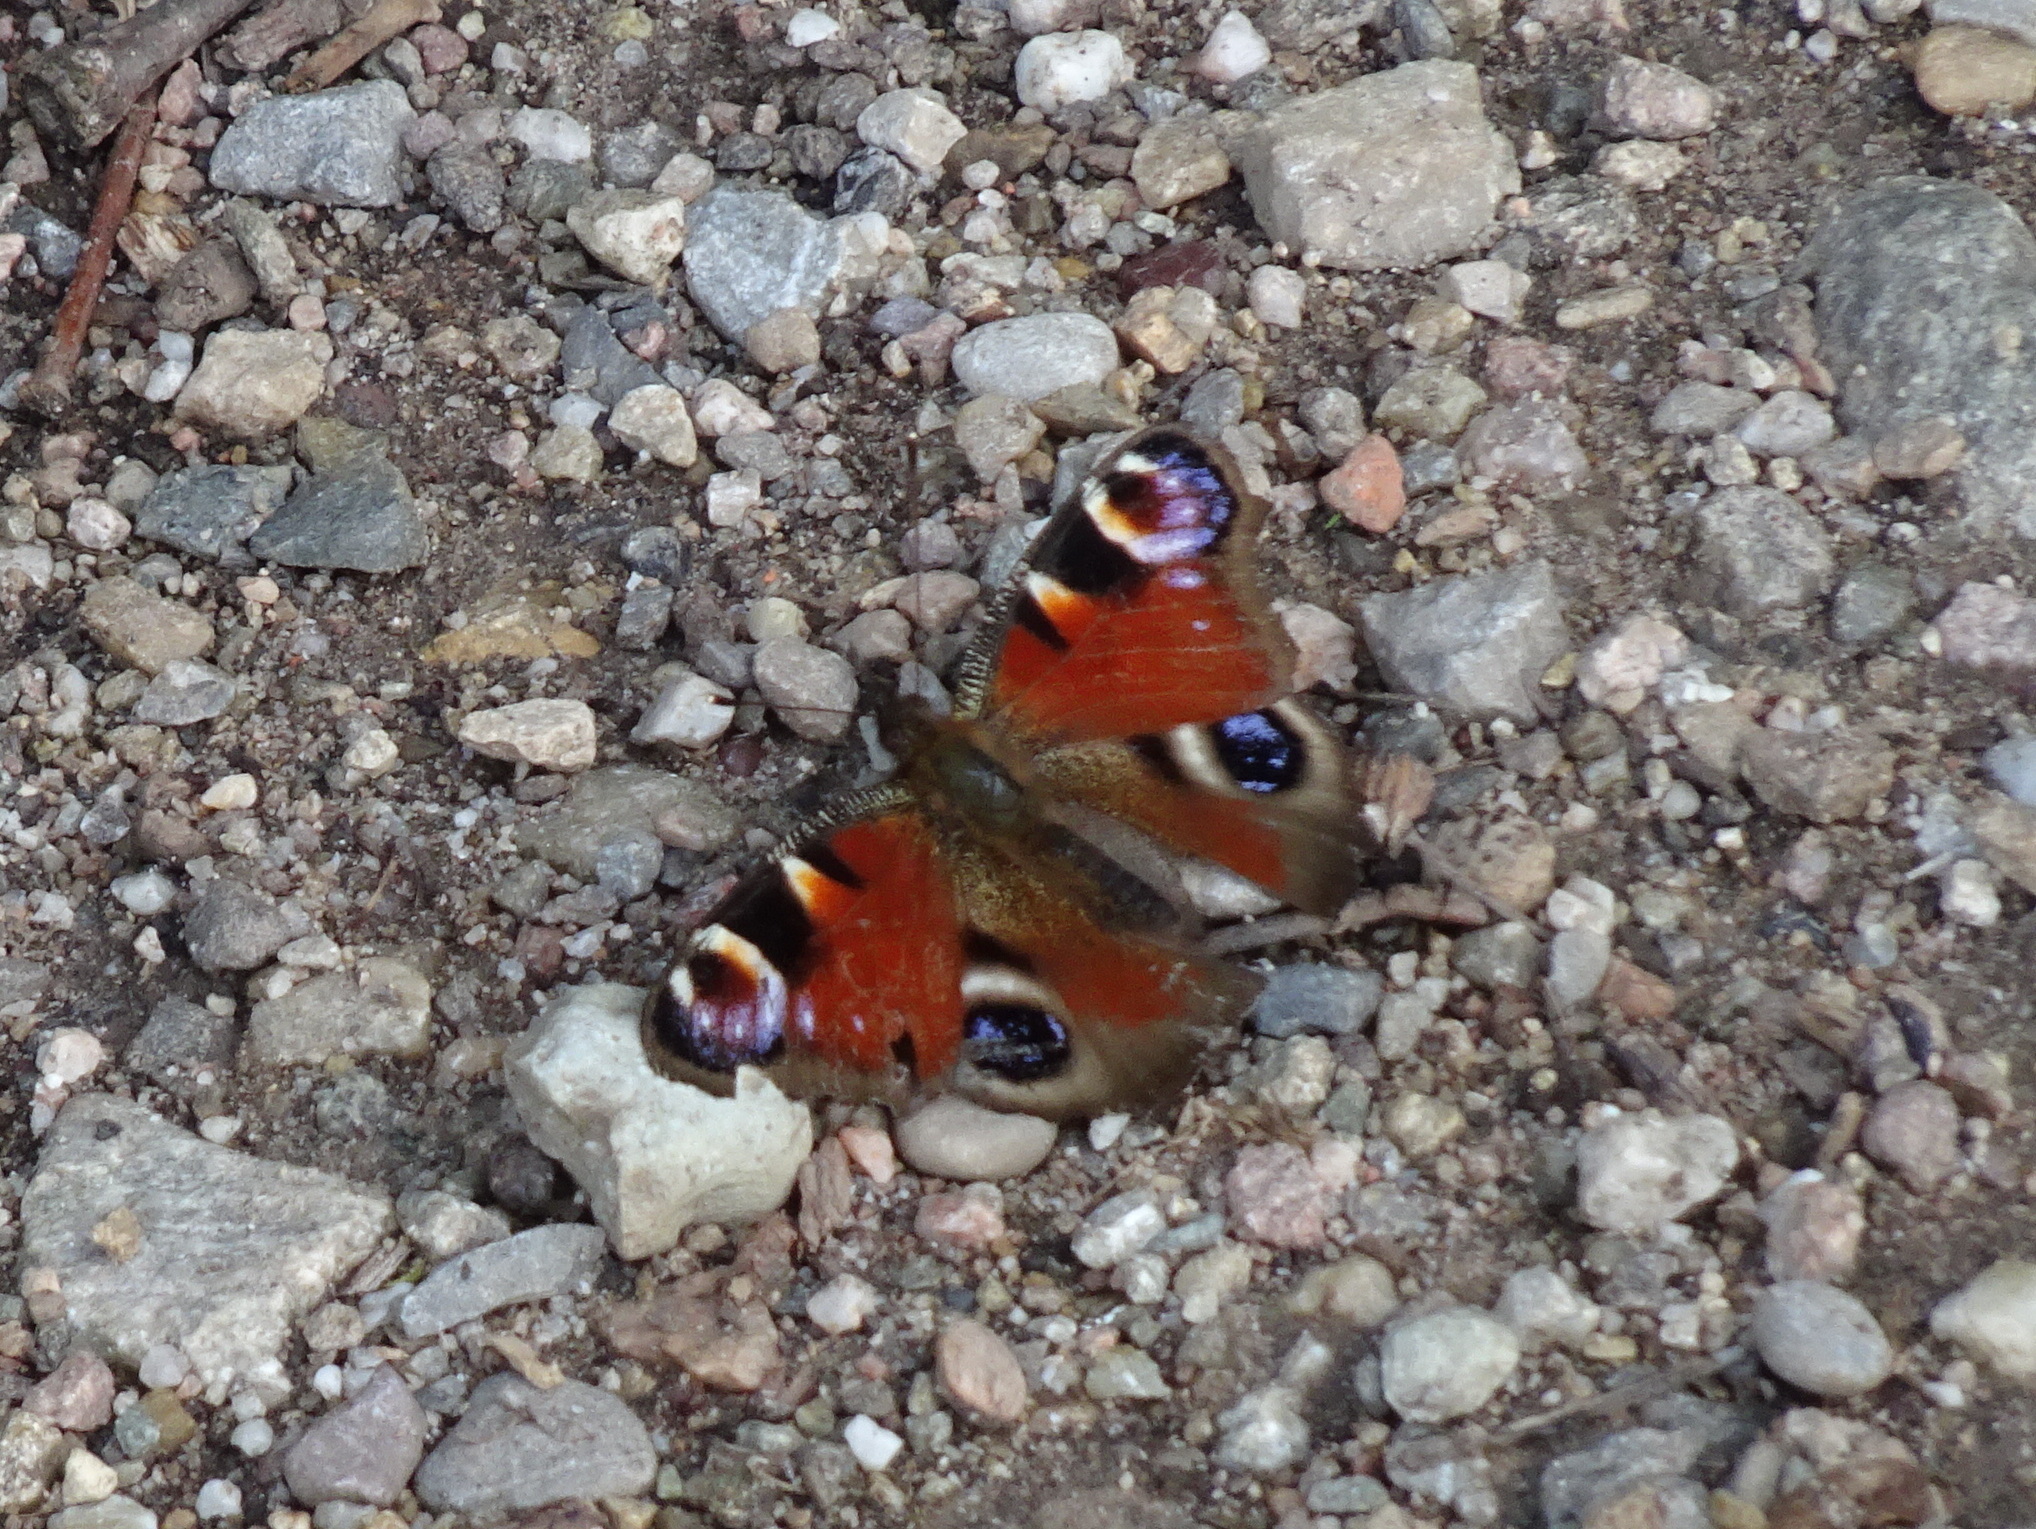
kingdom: Animalia
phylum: Arthropoda
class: Insecta
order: Lepidoptera
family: Nymphalidae
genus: Aglais
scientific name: Aglais io
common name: Peacock
